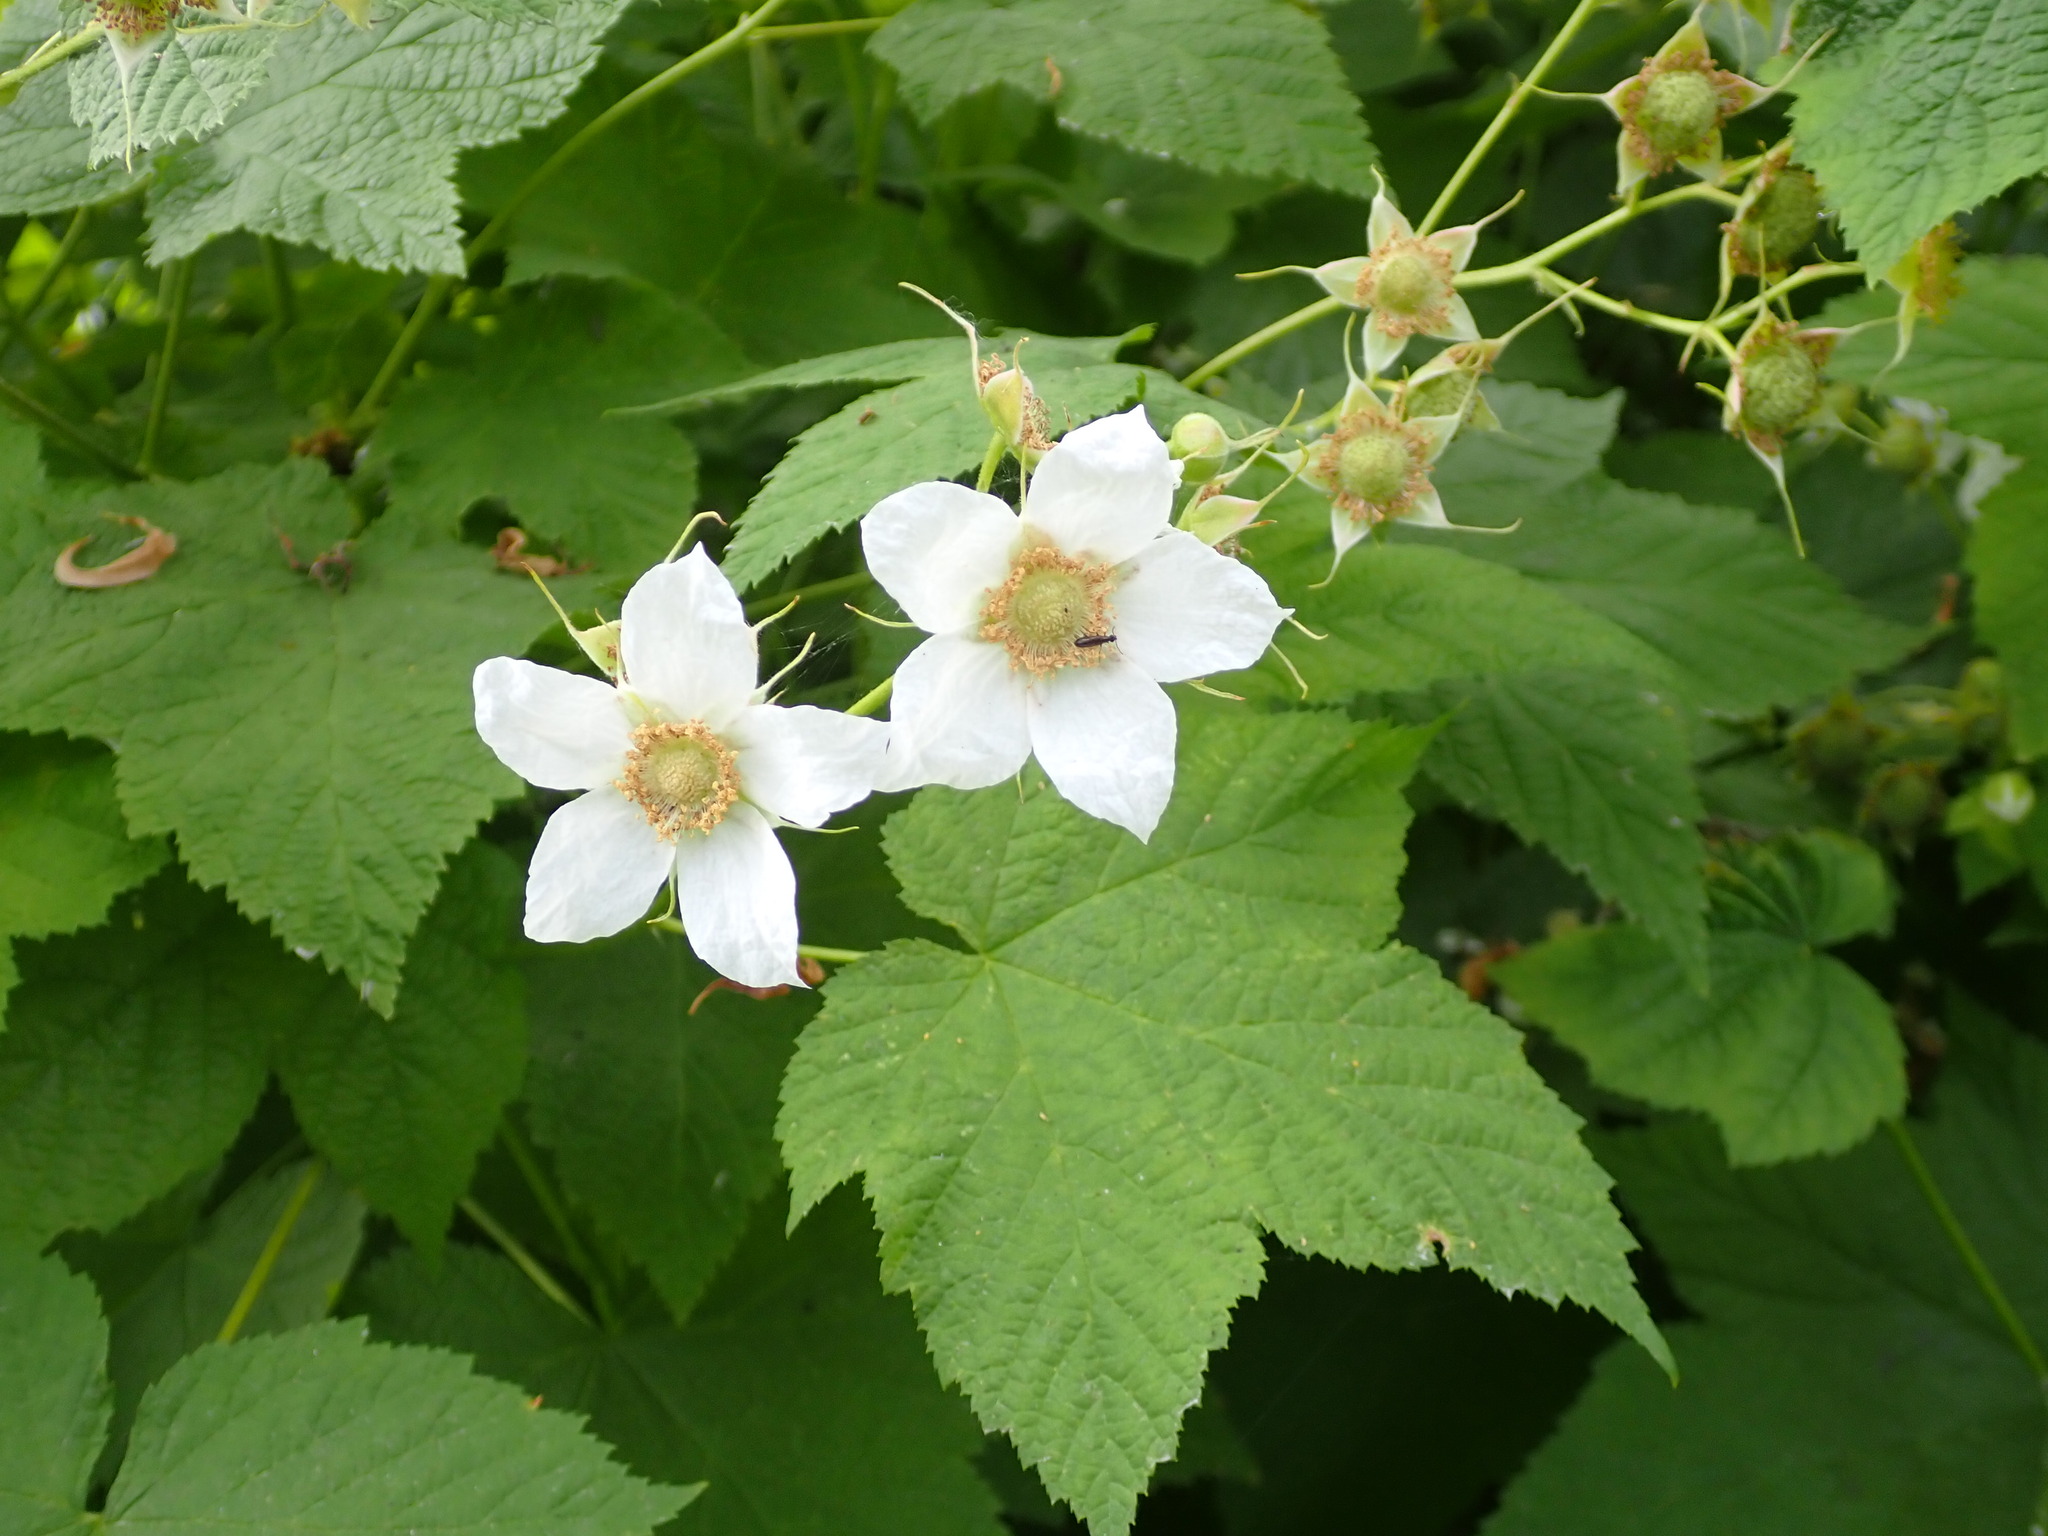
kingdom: Plantae
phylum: Tracheophyta
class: Magnoliopsida
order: Rosales
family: Rosaceae
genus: Rubus
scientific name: Rubus parviflorus
